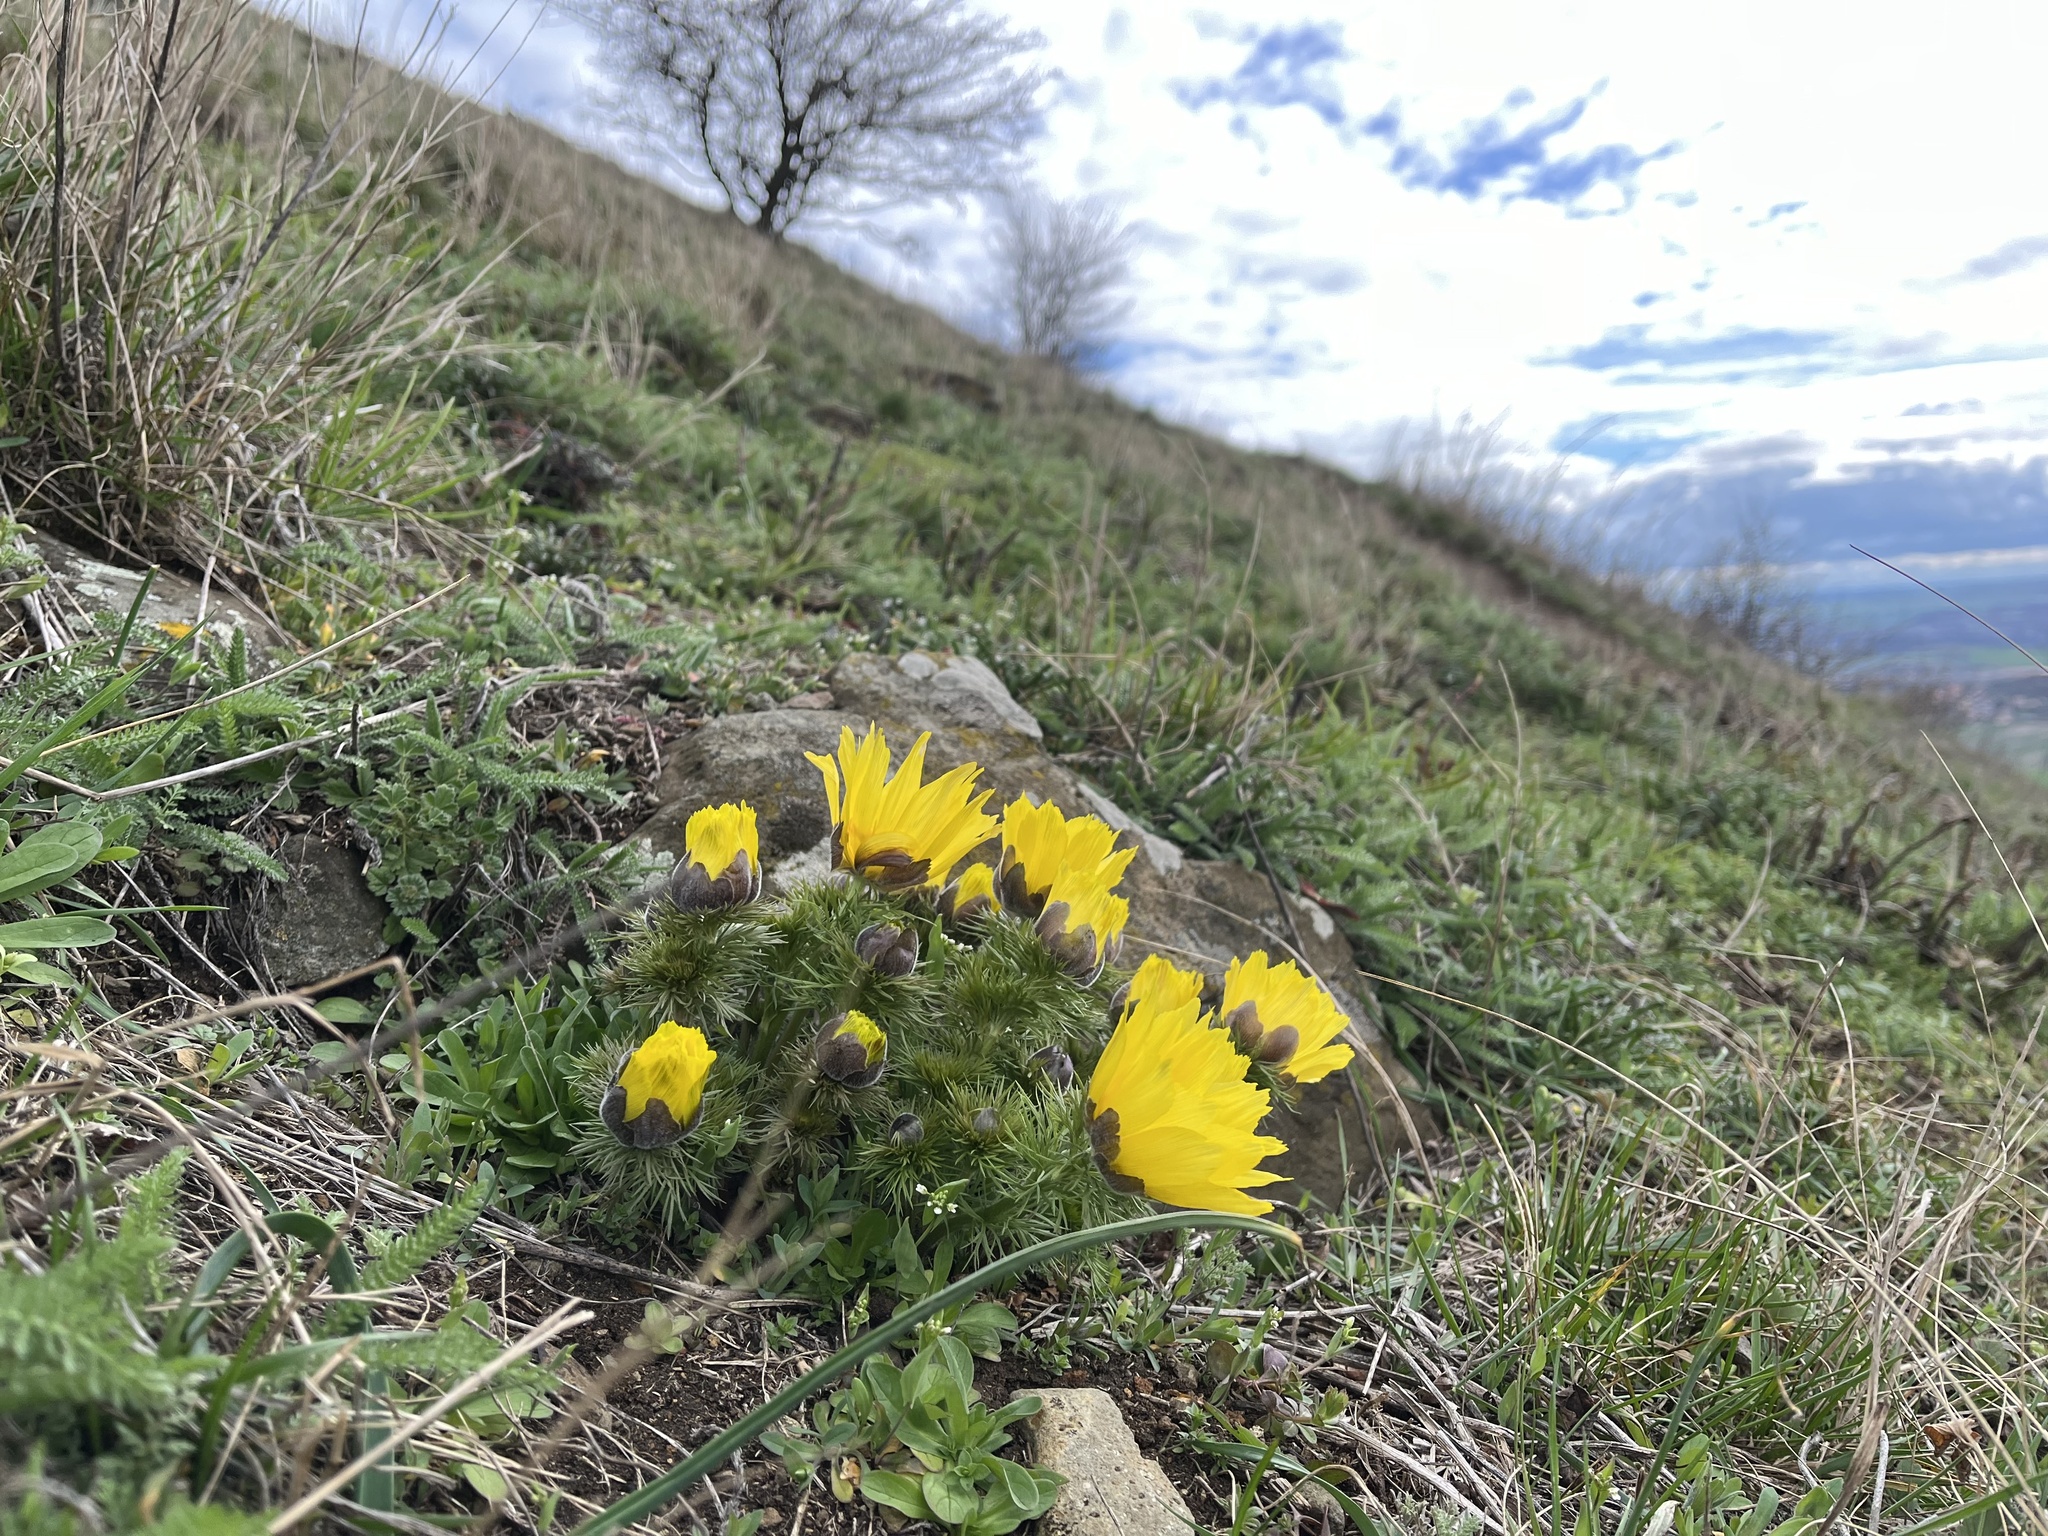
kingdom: Plantae
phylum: Tracheophyta
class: Magnoliopsida
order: Ranunculales
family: Ranunculaceae
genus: Adonis
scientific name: Adonis vernalis
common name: Yellow pheasants-eye
